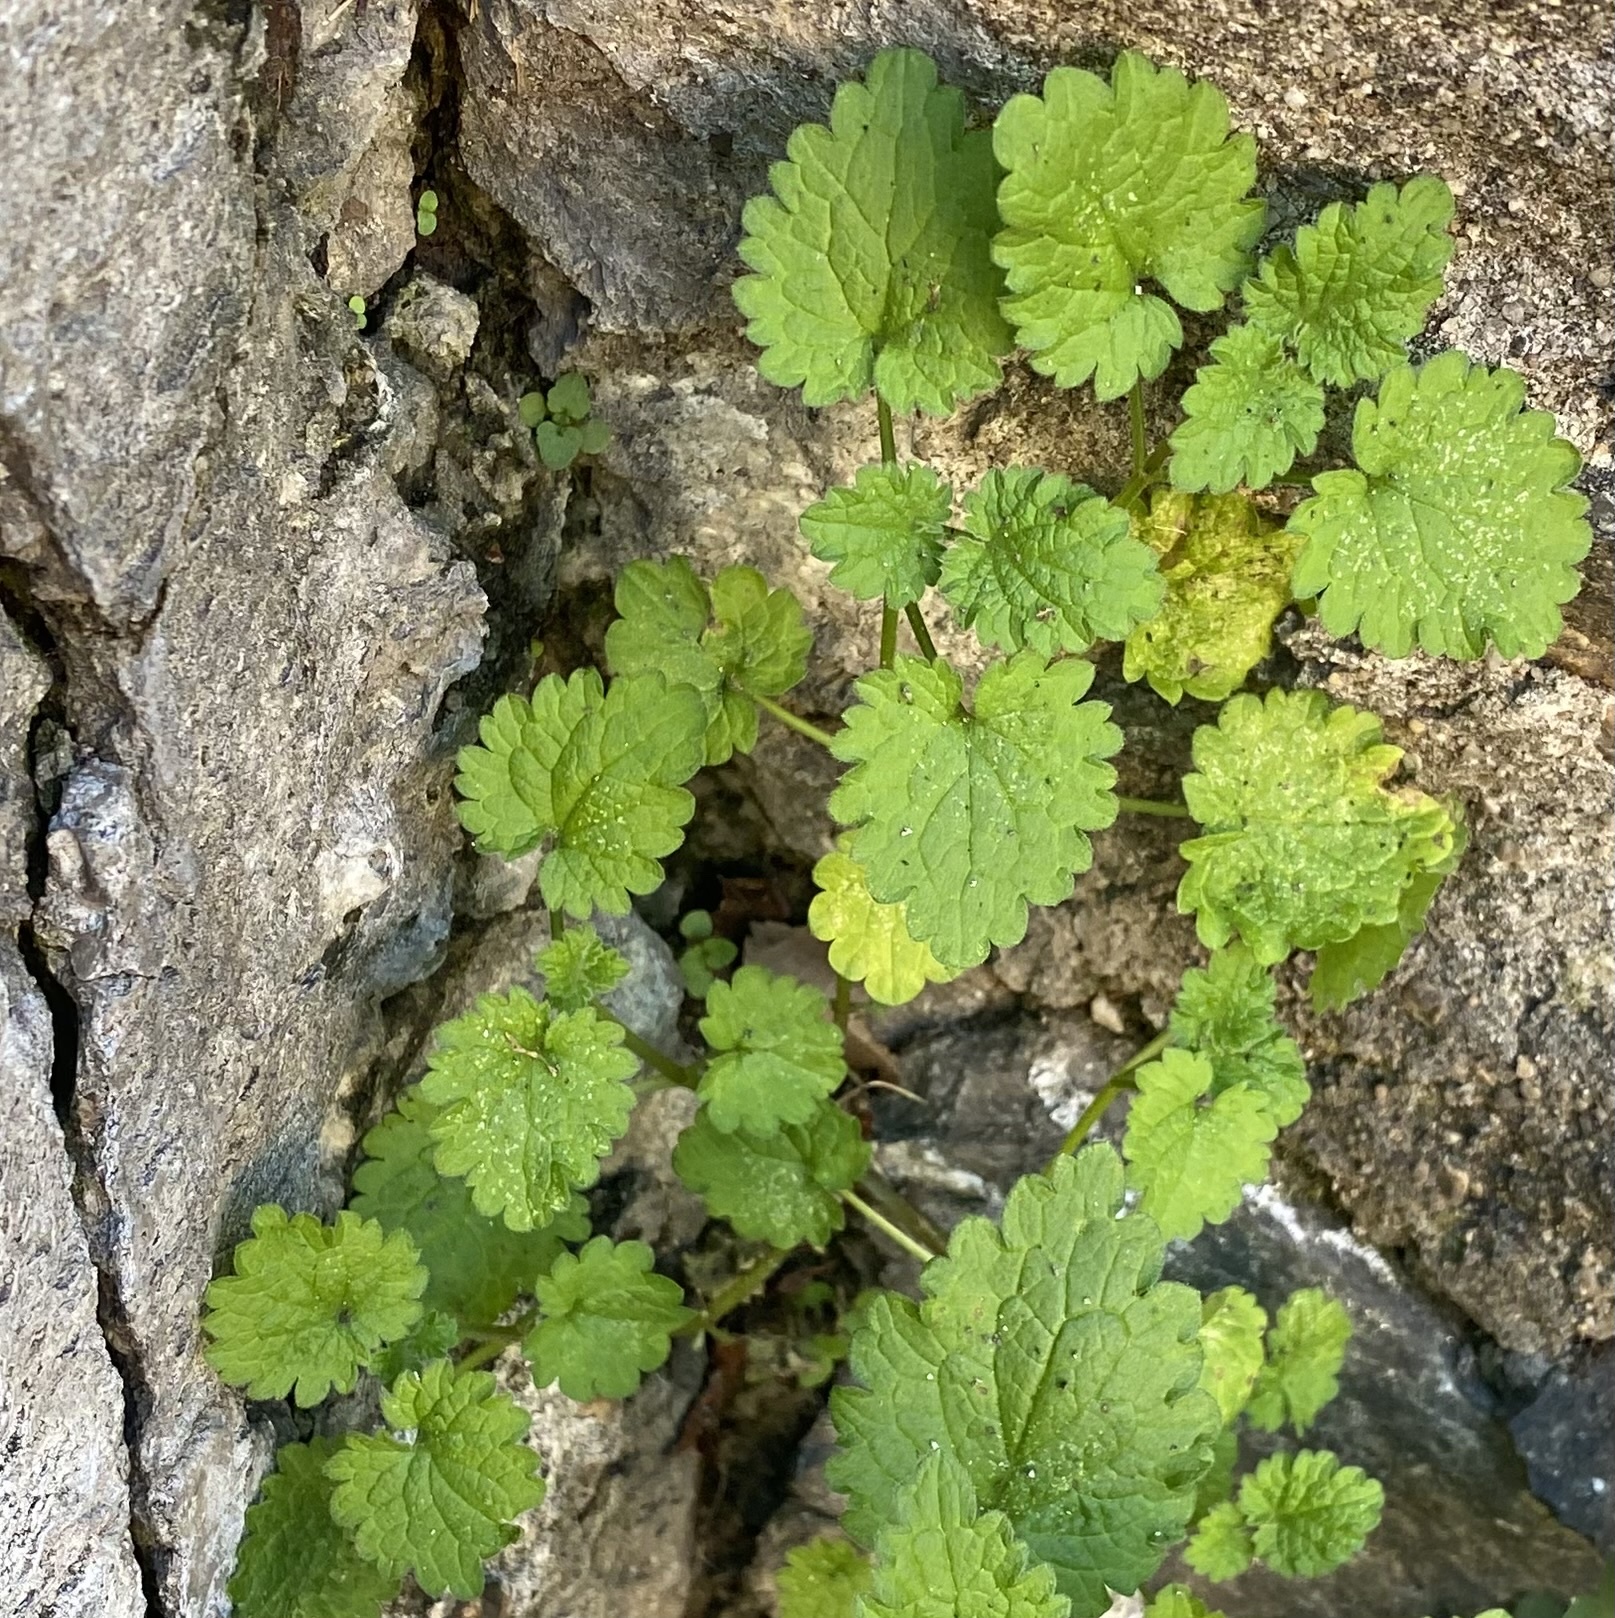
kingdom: Plantae
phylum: Tracheophyta
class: Magnoliopsida
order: Lamiales
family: Lamiaceae
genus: Lamium
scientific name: Lamium hybridum
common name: Cut-leaved dead-nettle
